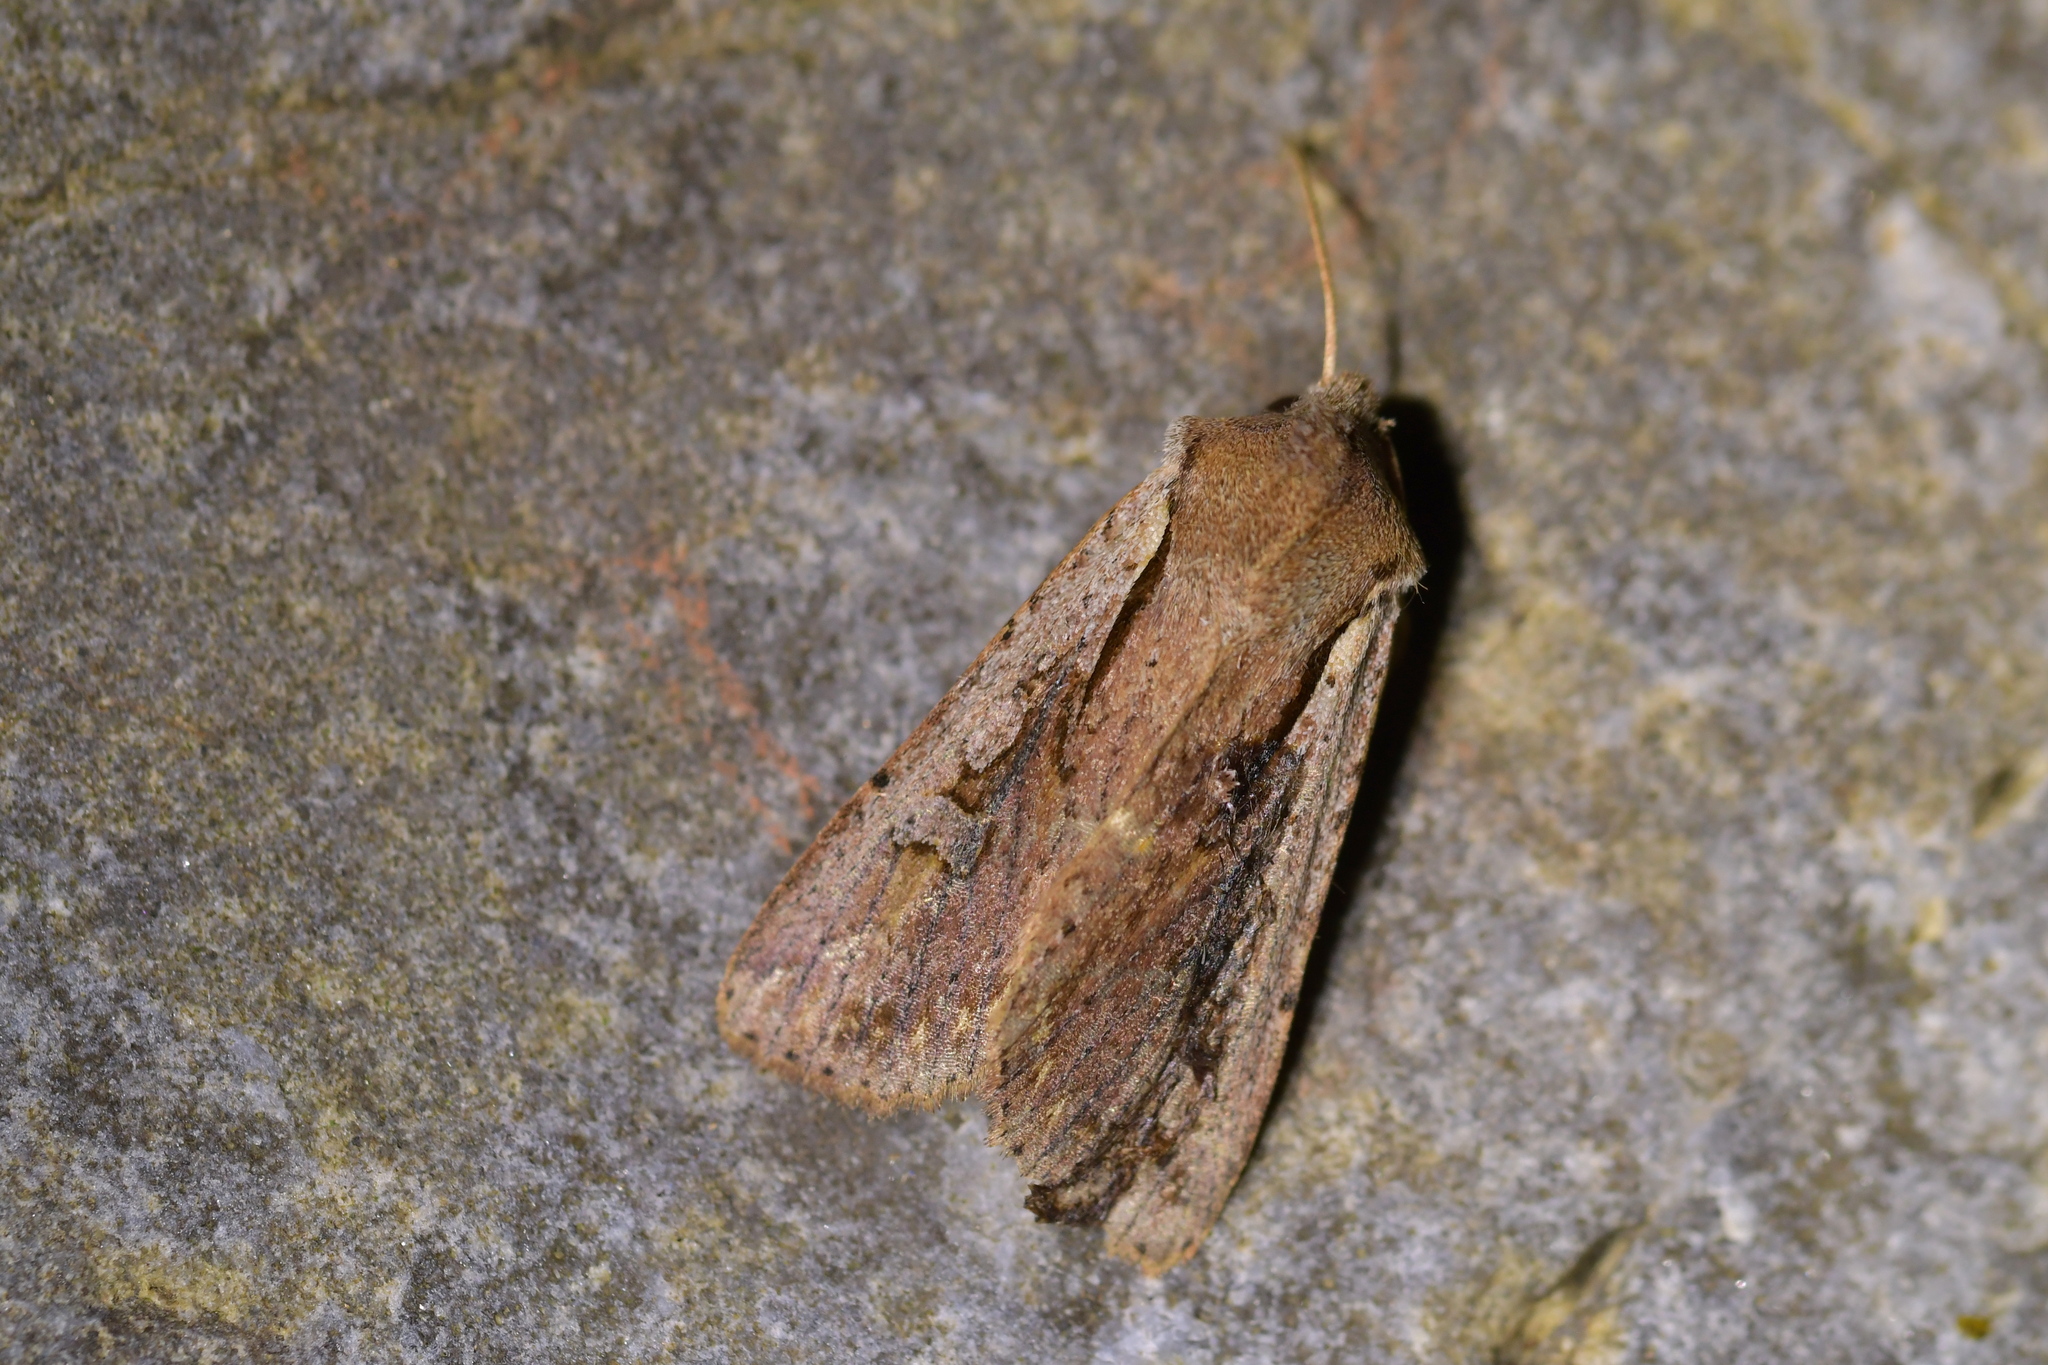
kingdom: Animalia
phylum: Arthropoda
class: Insecta
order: Lepidoptera
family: Noctuidae
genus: Ichneutica
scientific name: Ichneutica atristriga
